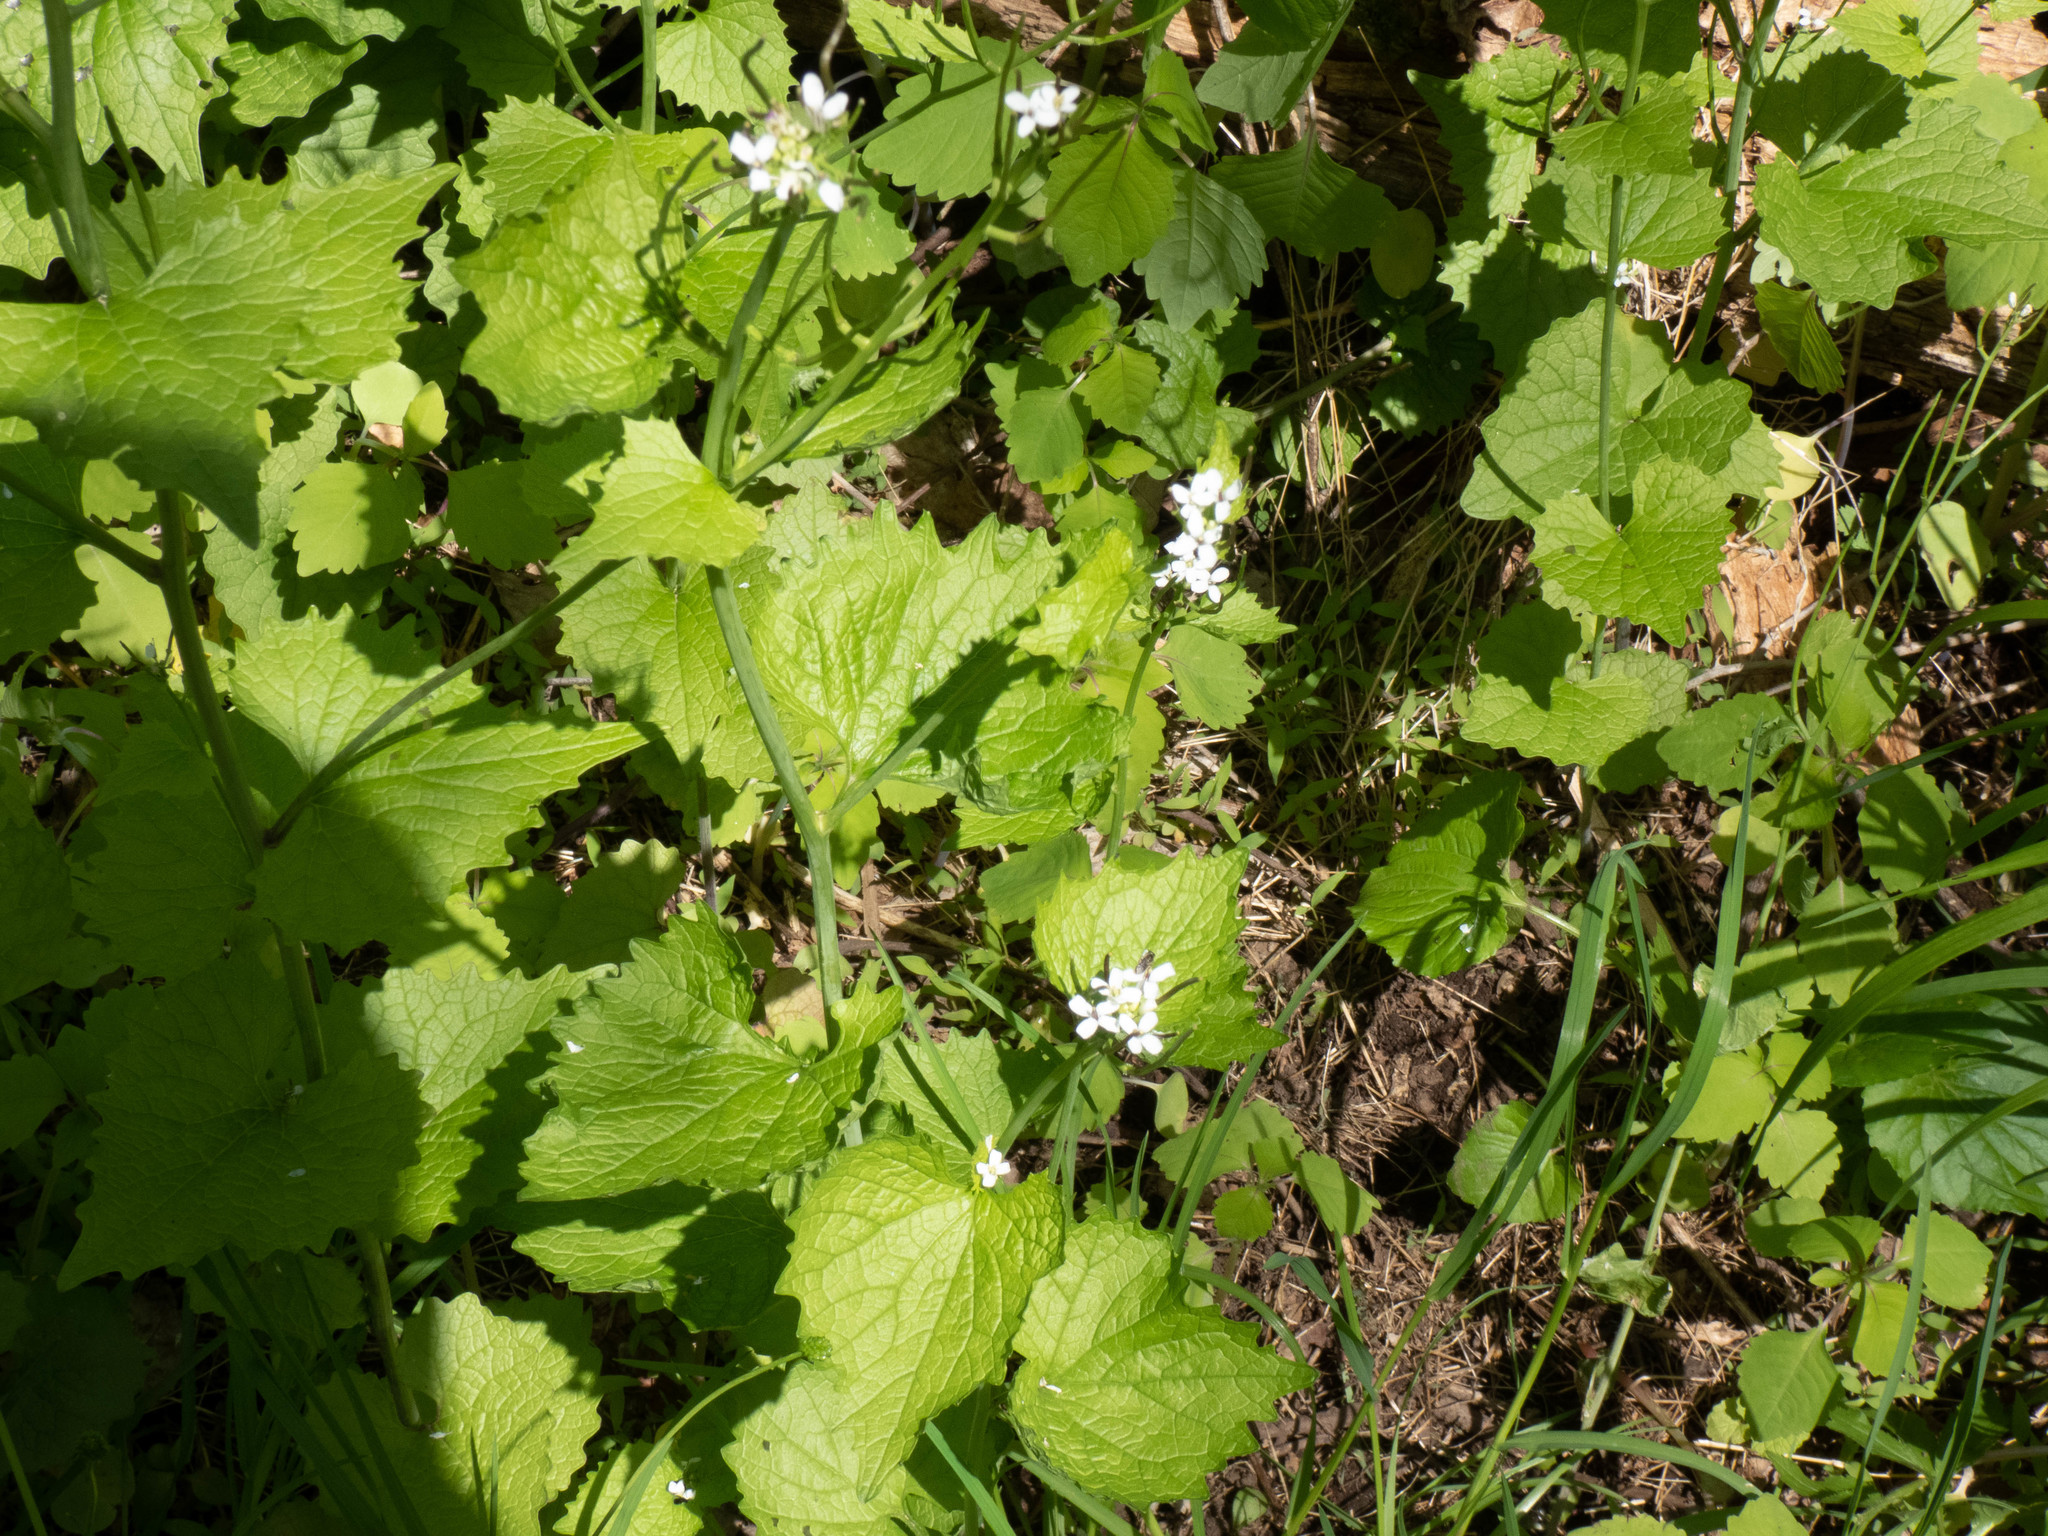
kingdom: Plantae
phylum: Tracheophyta
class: Magnoliopsida
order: Brassicales
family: Brassicaceae
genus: Alliaria
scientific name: Alliaria petiolata
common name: Garlic mustard
